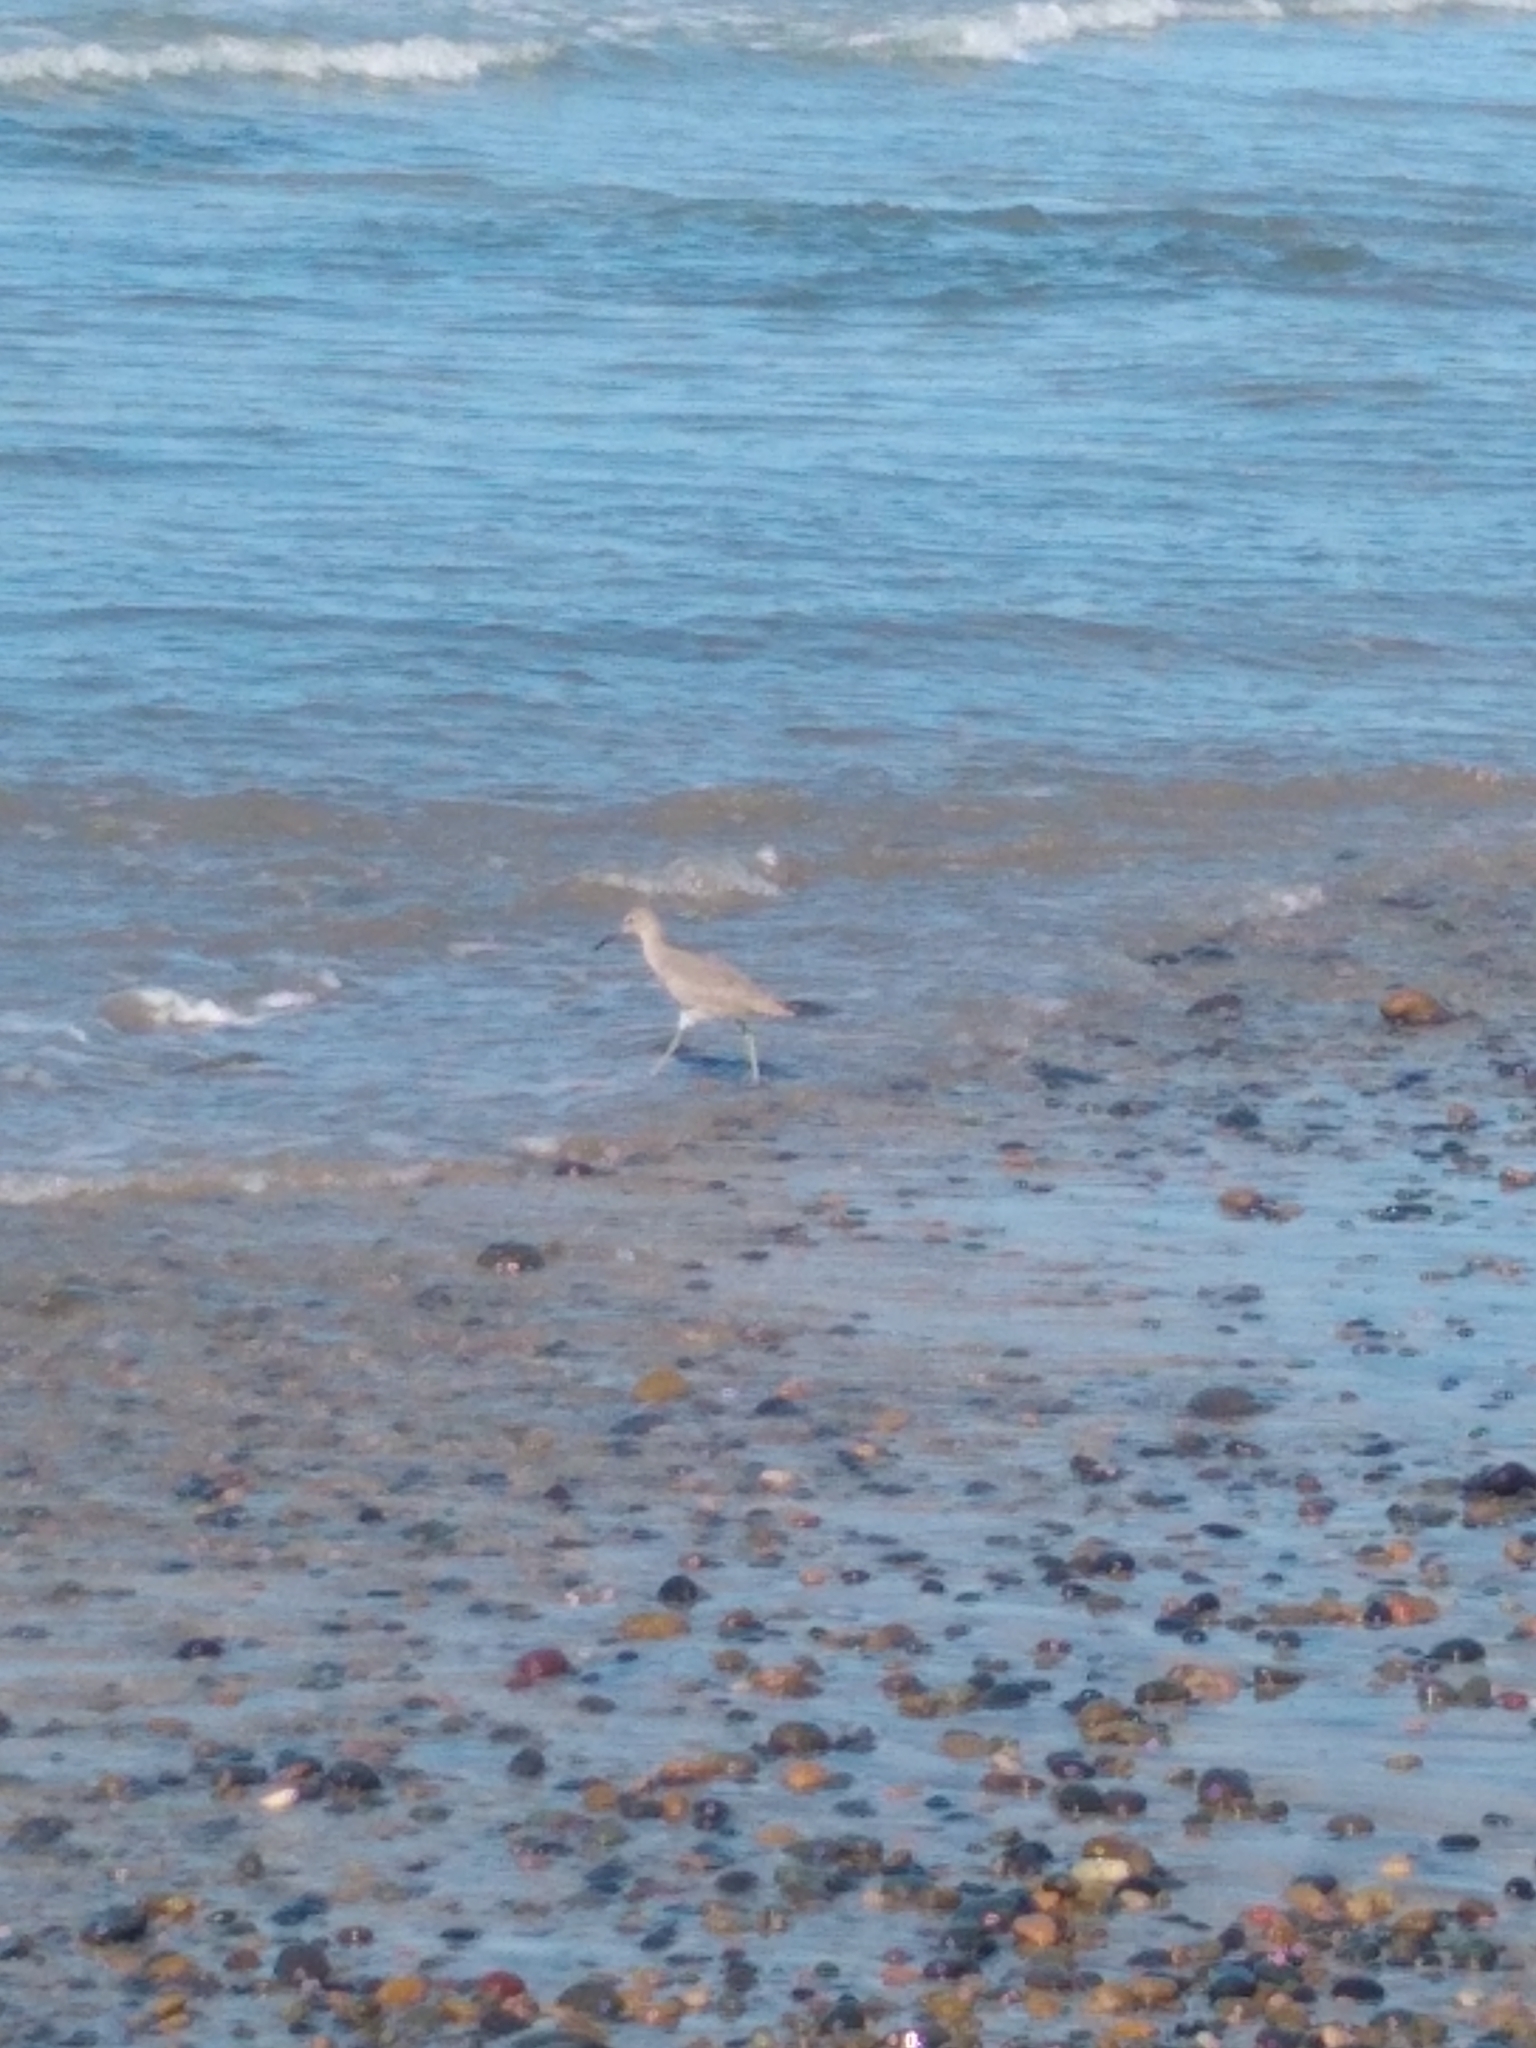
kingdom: Animalia
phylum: Chordata
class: Aves
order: Charadriiformes
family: Scolopacidae
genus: Tringa
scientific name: Tringa semipalmata
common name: Willet
